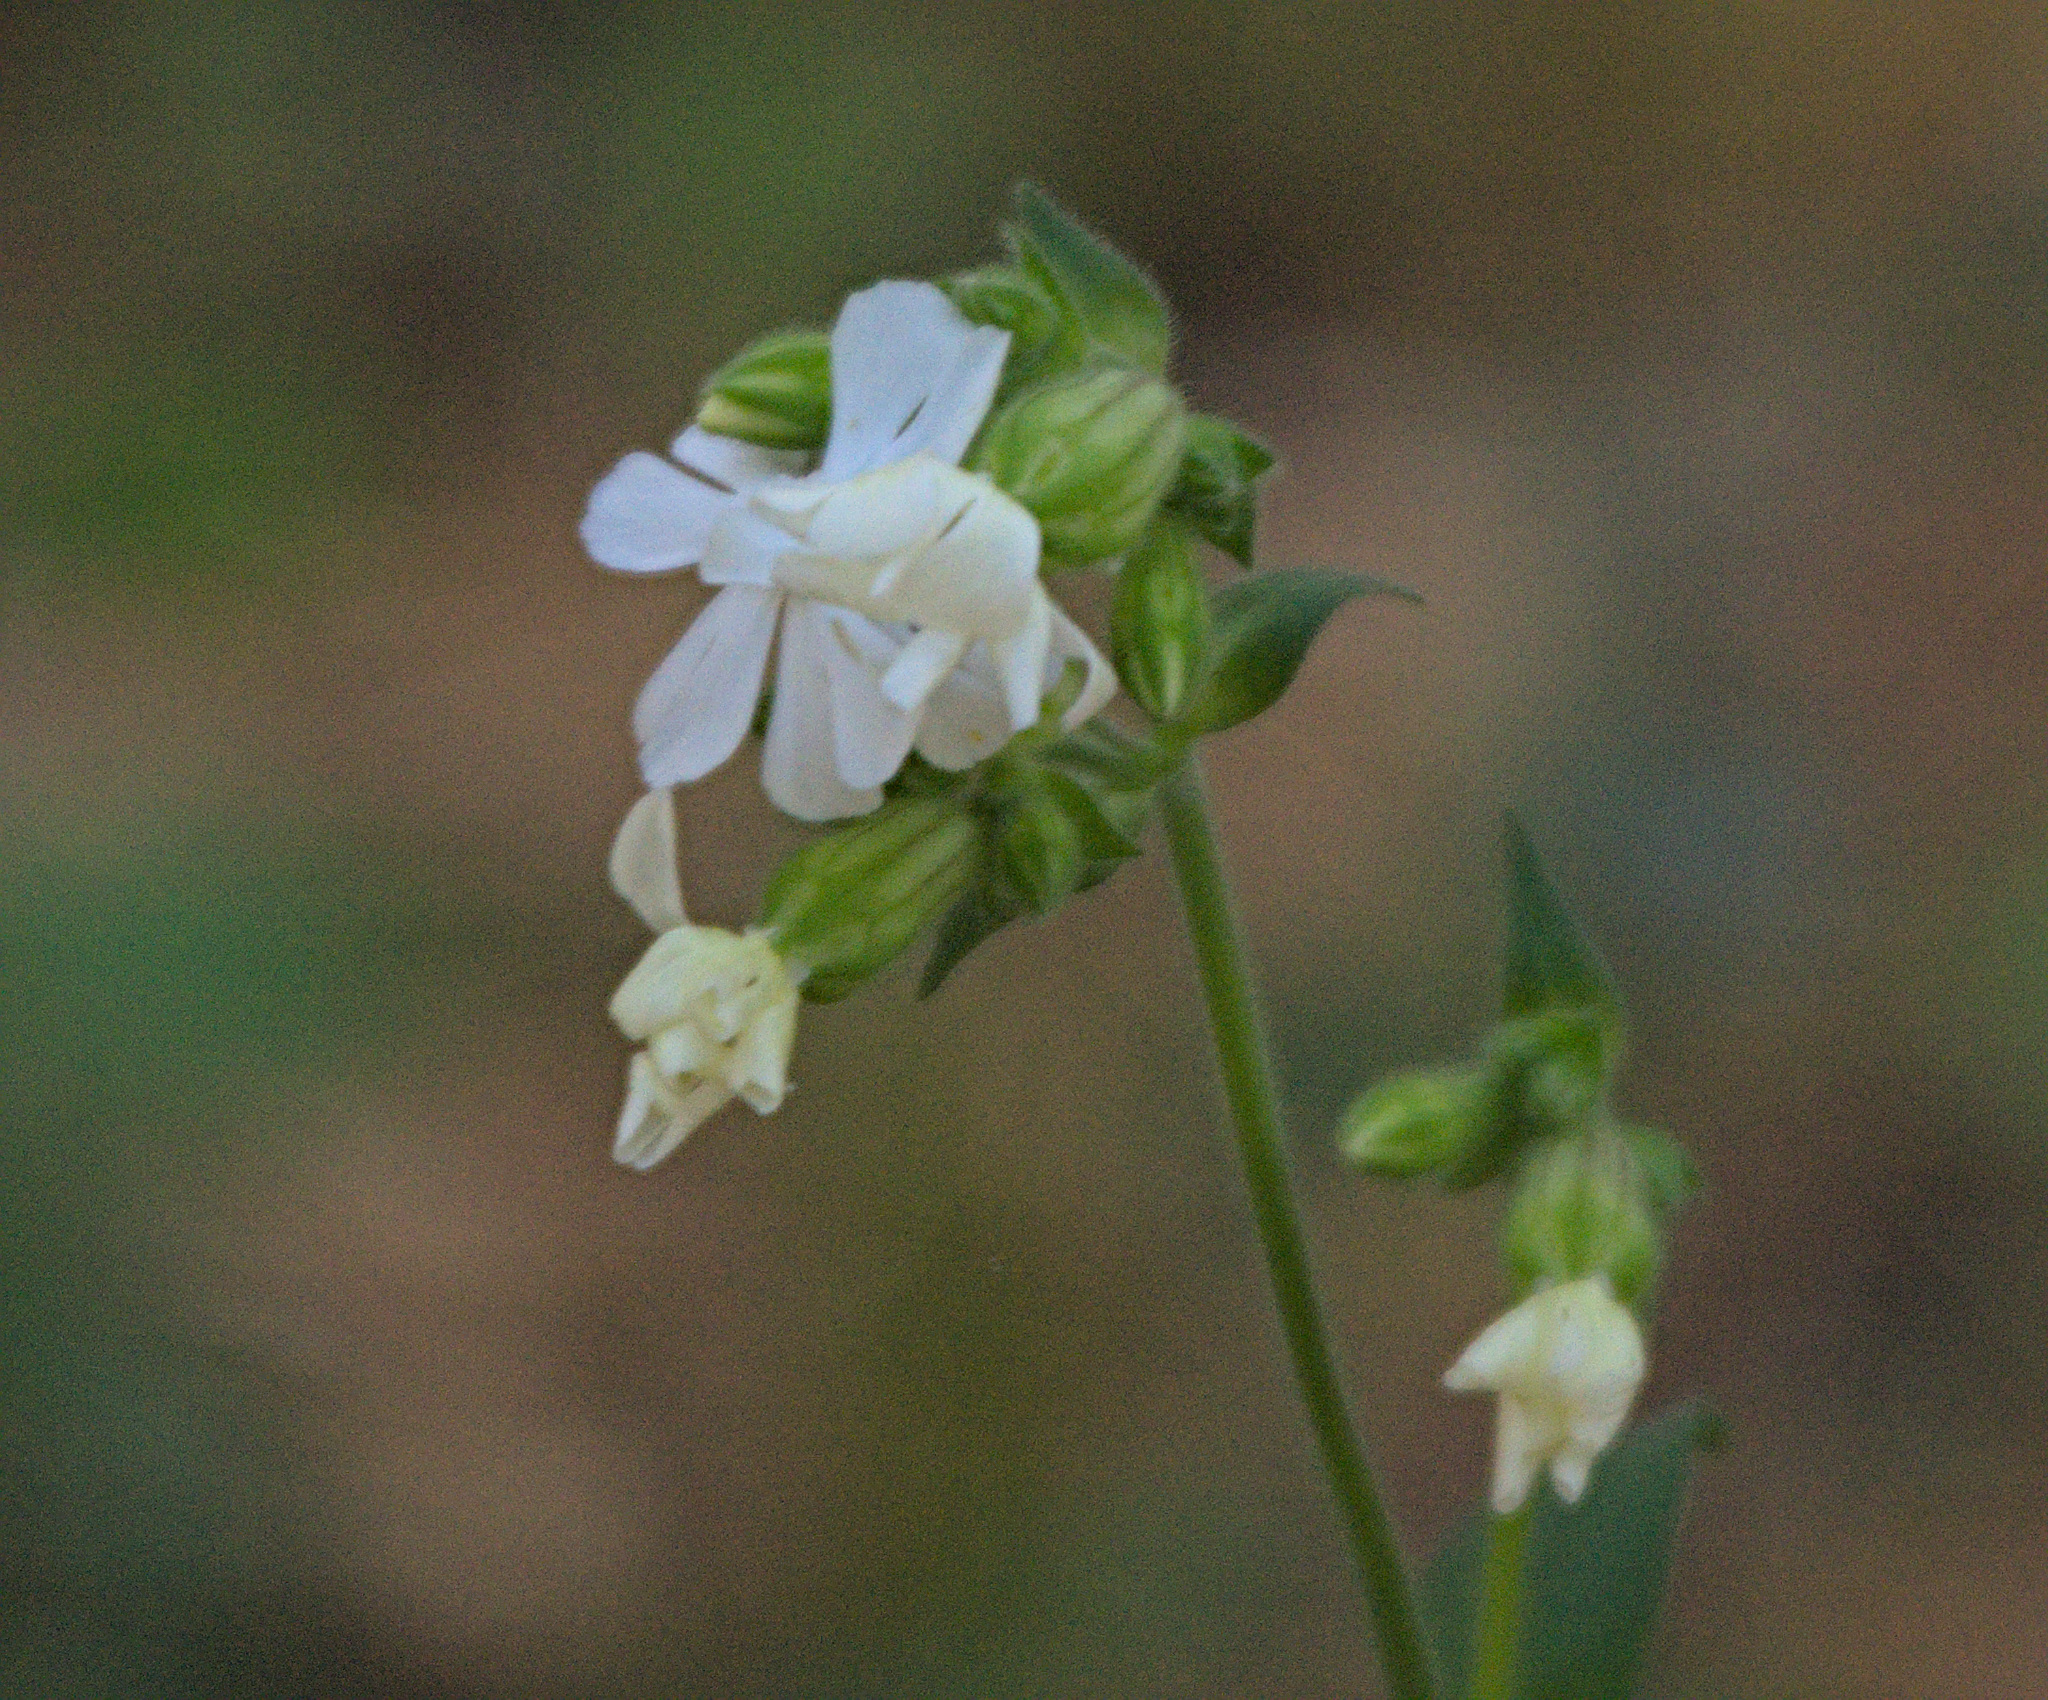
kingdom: Plantae
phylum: Tracheophyta
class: Magnoliopsida
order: Caryophyllales
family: Caryophyllaceae
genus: Silene
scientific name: Silene latifolia
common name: White campion
